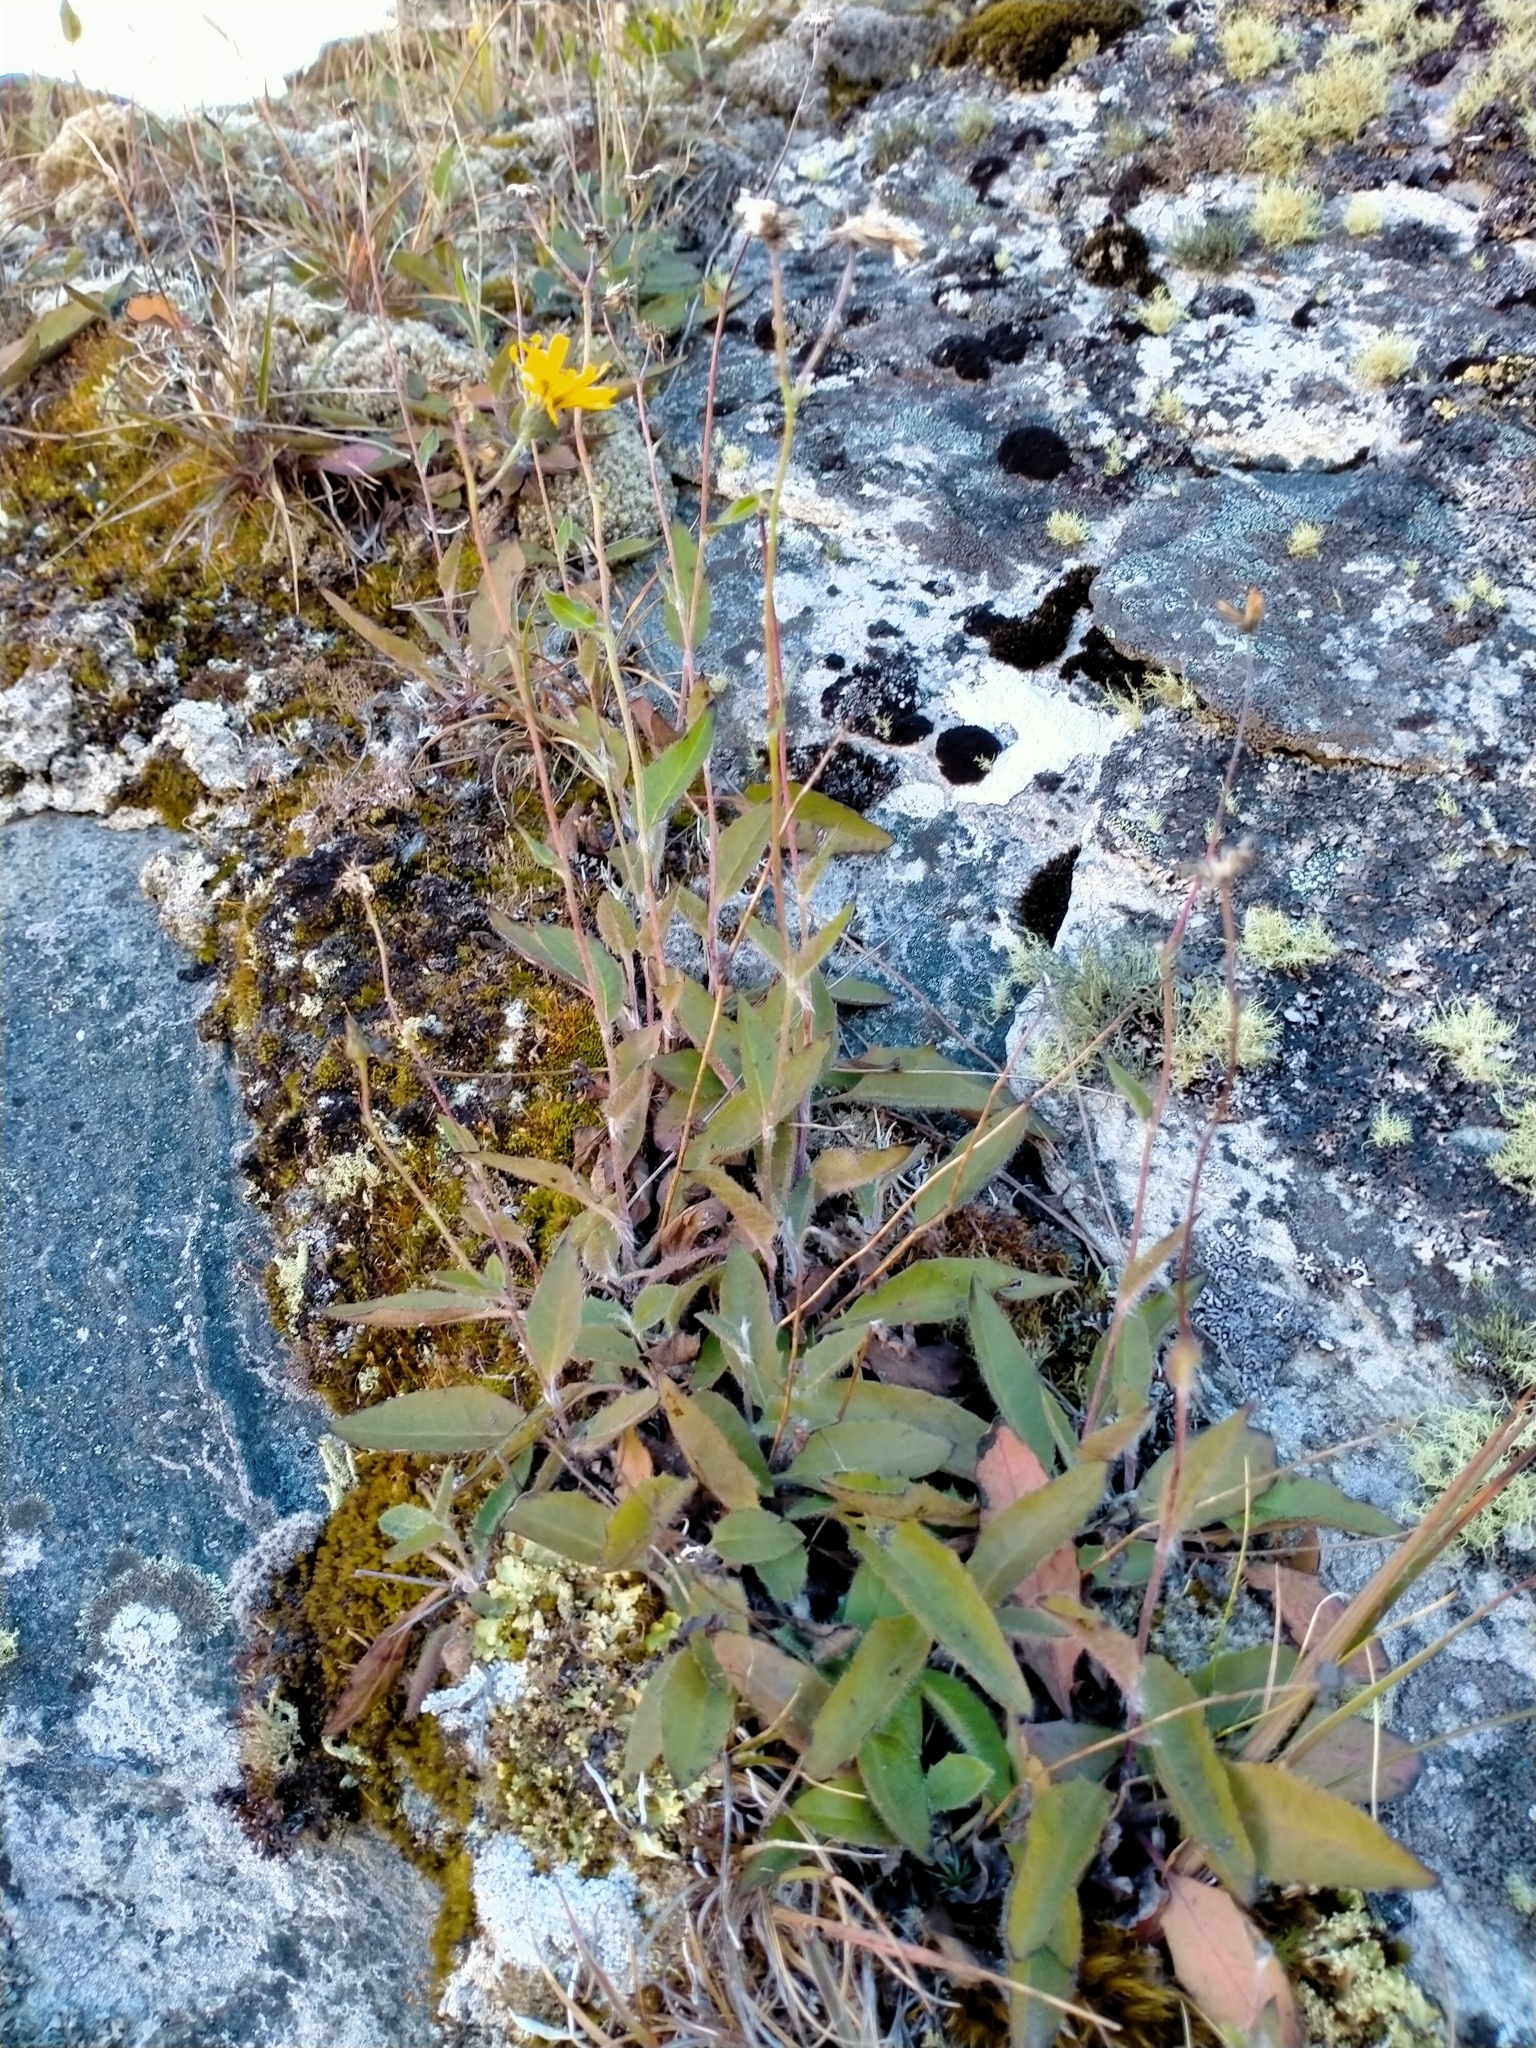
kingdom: Plantae
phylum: Tracheophyta
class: Magnoliopsida
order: Asterales
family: Asteraceae
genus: Hieracium
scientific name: Hieracium lepidulum
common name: Irregular-toothed hawkweed
